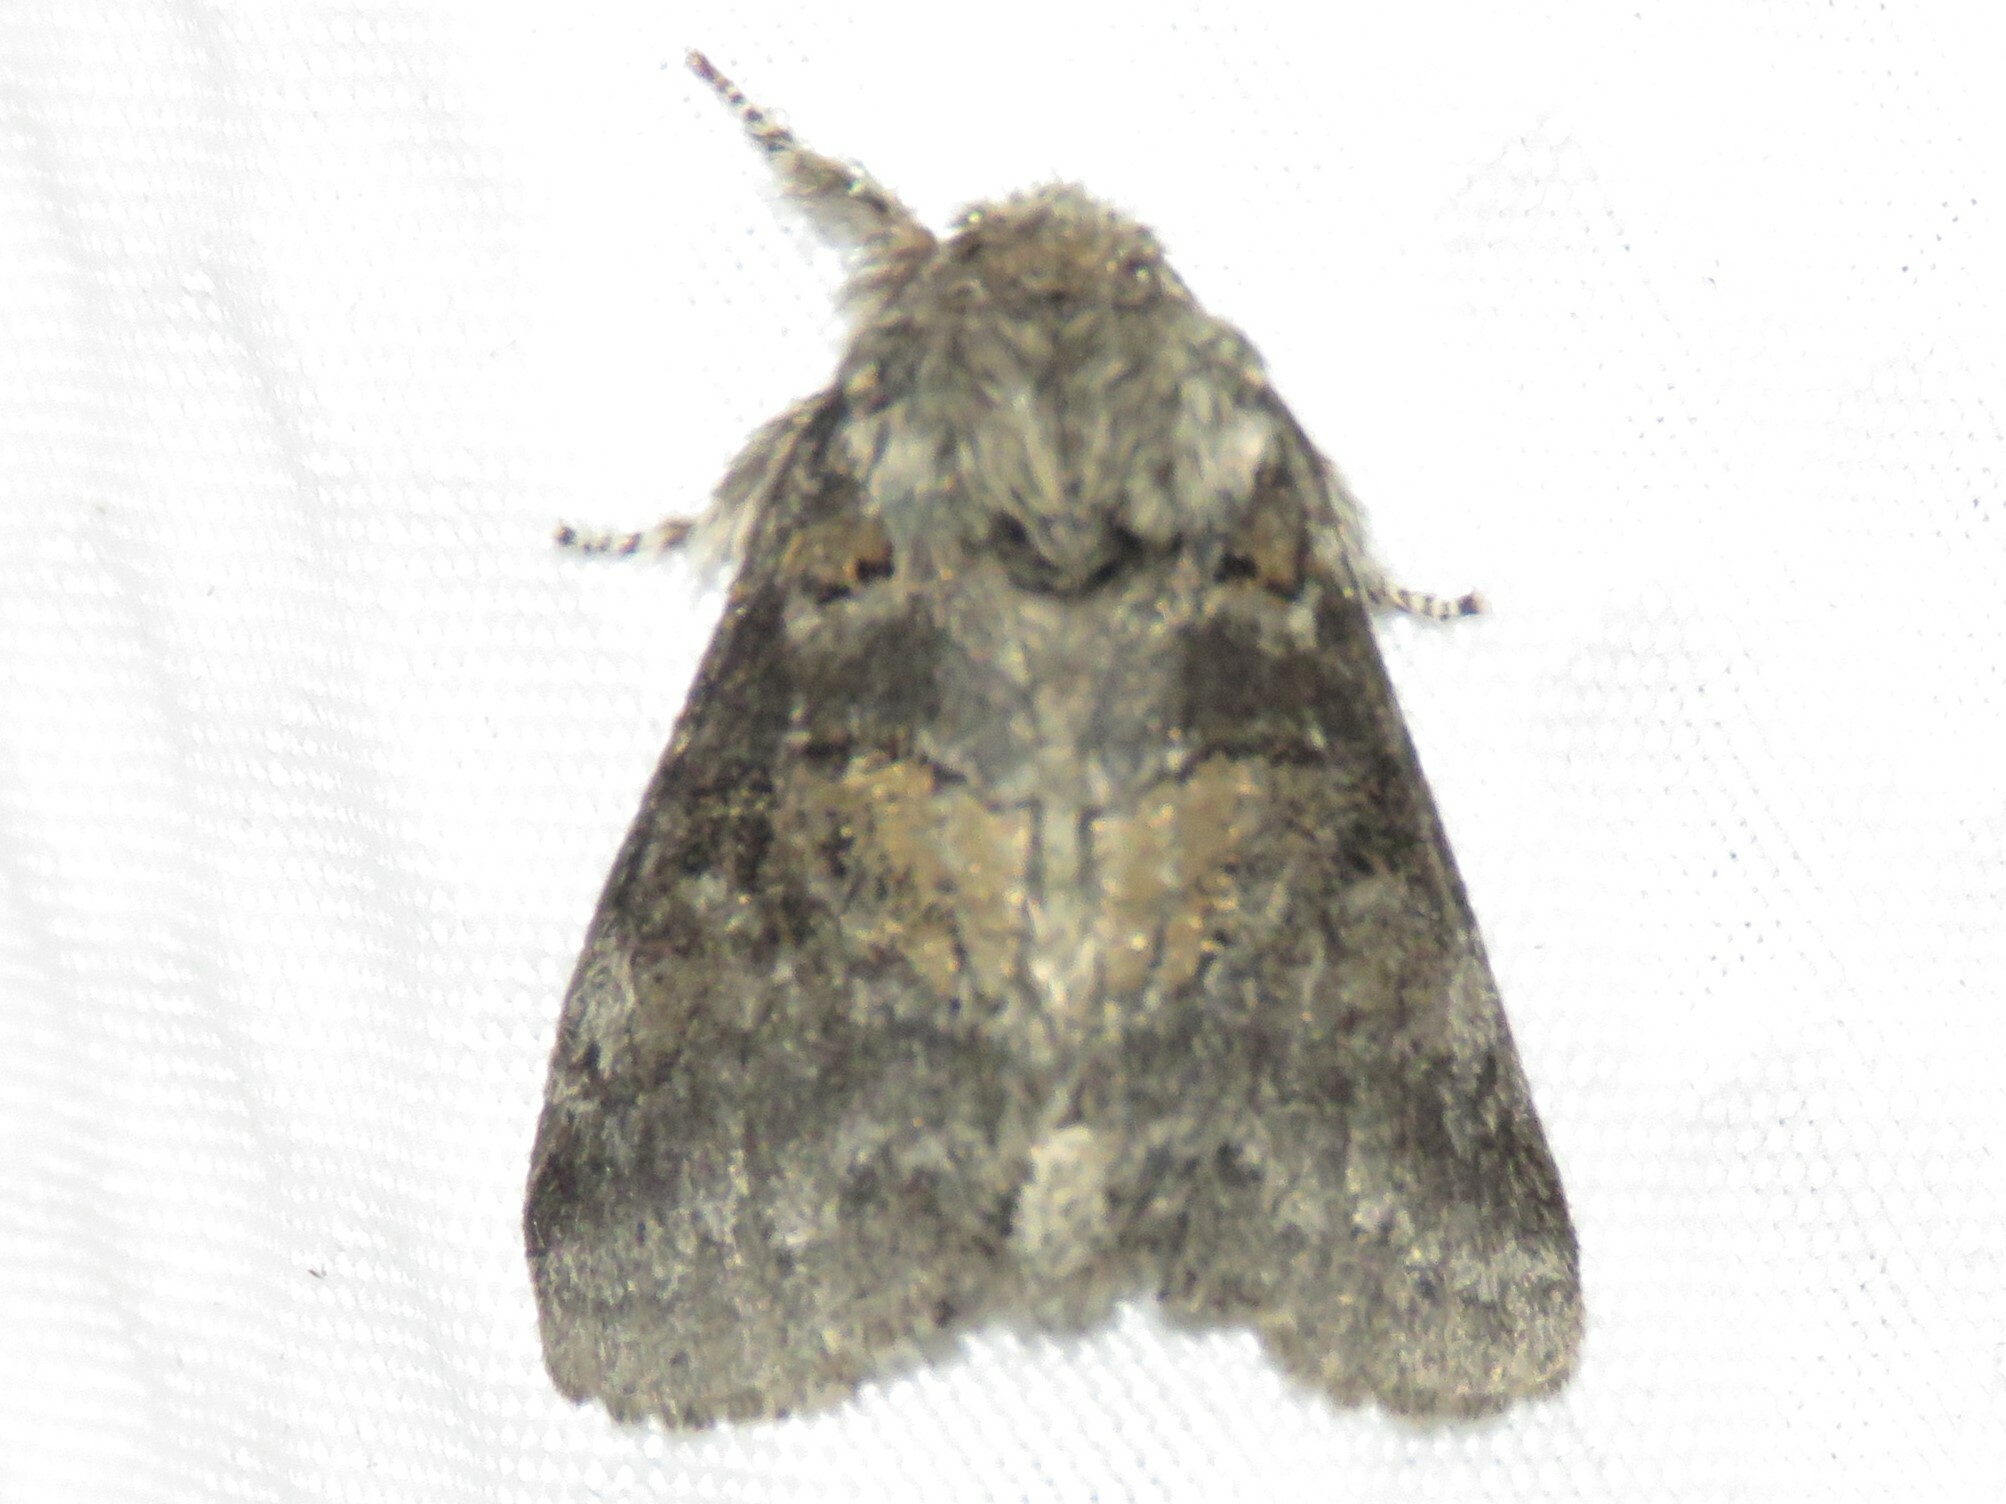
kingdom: Animalia
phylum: Arthropoda
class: Insecta
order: Lepidoptera
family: Notodontidae
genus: Gluphisia
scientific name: Gluphisia septentrionis
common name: Common gluphisia
